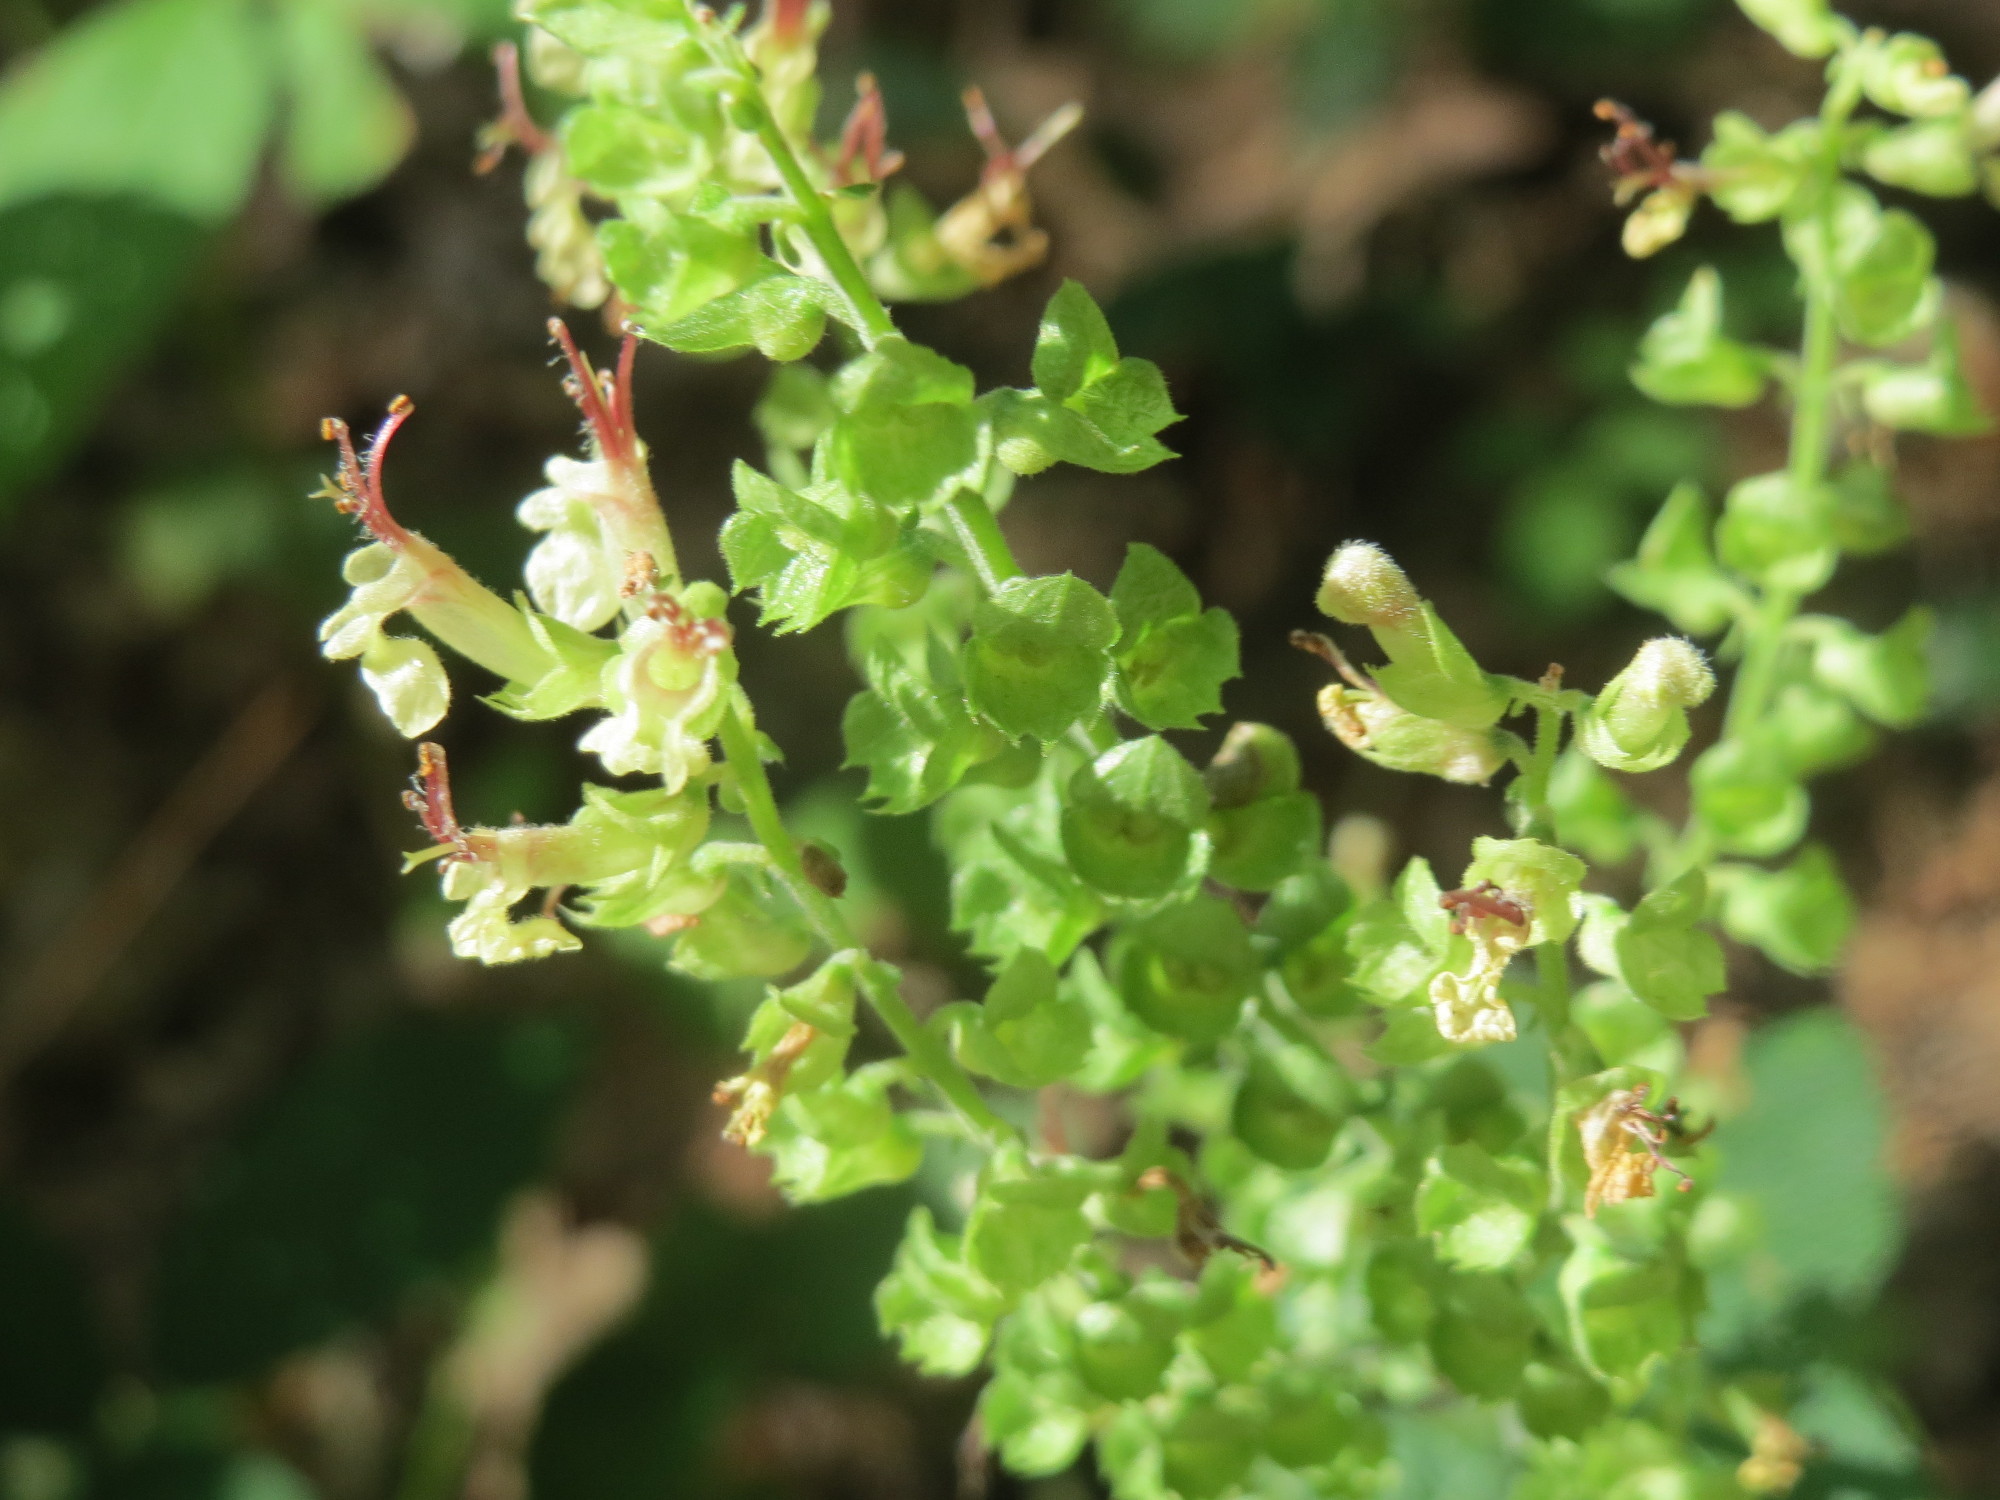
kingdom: Plantae
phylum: Tracheophyta
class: Magnoliopsida
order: Lamiales
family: Lamiaceae
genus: Teucrium
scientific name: Teucrium scorodonia
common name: Woodland germander
